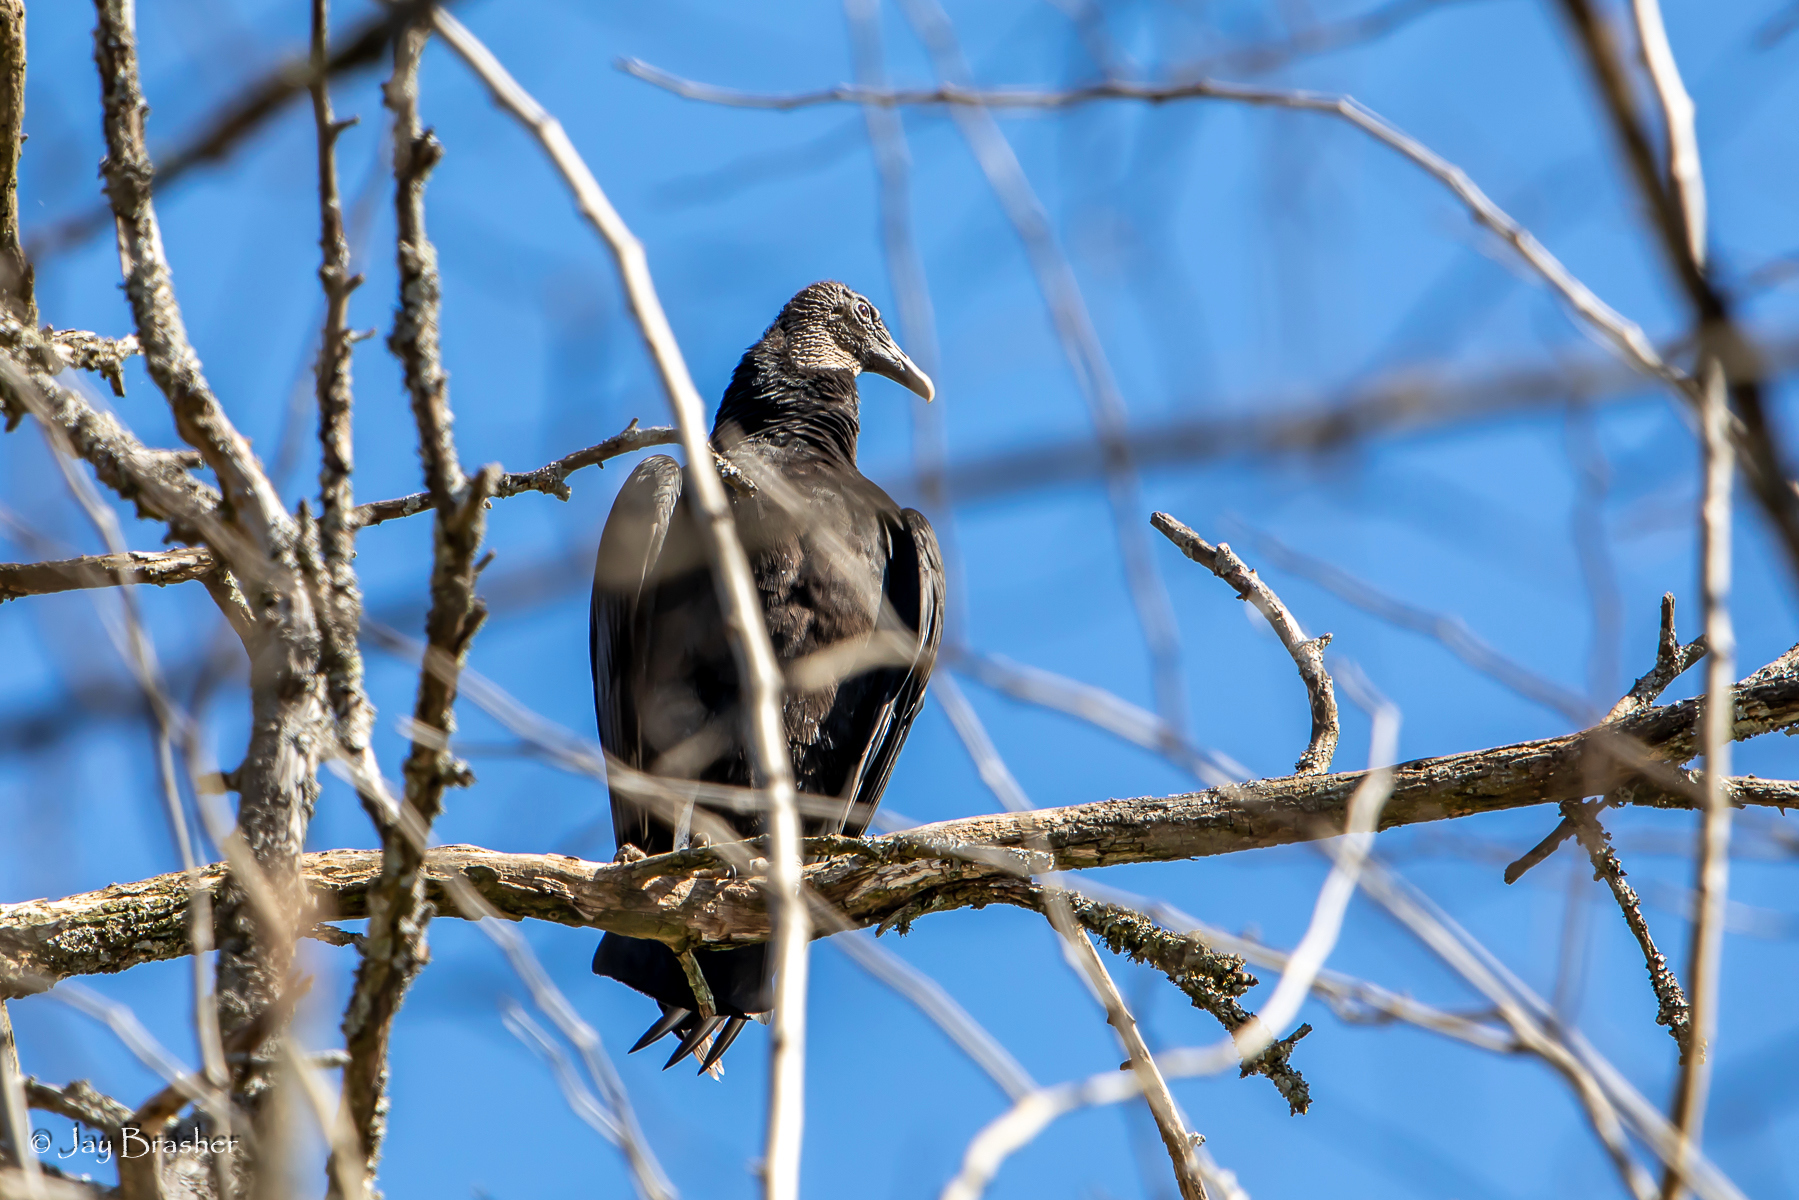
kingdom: Animalia
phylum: Chordata
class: Aves
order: Accipitriformes
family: Cathartidae
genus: Coragyps
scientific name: Coragyps atratus
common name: Black vulture
